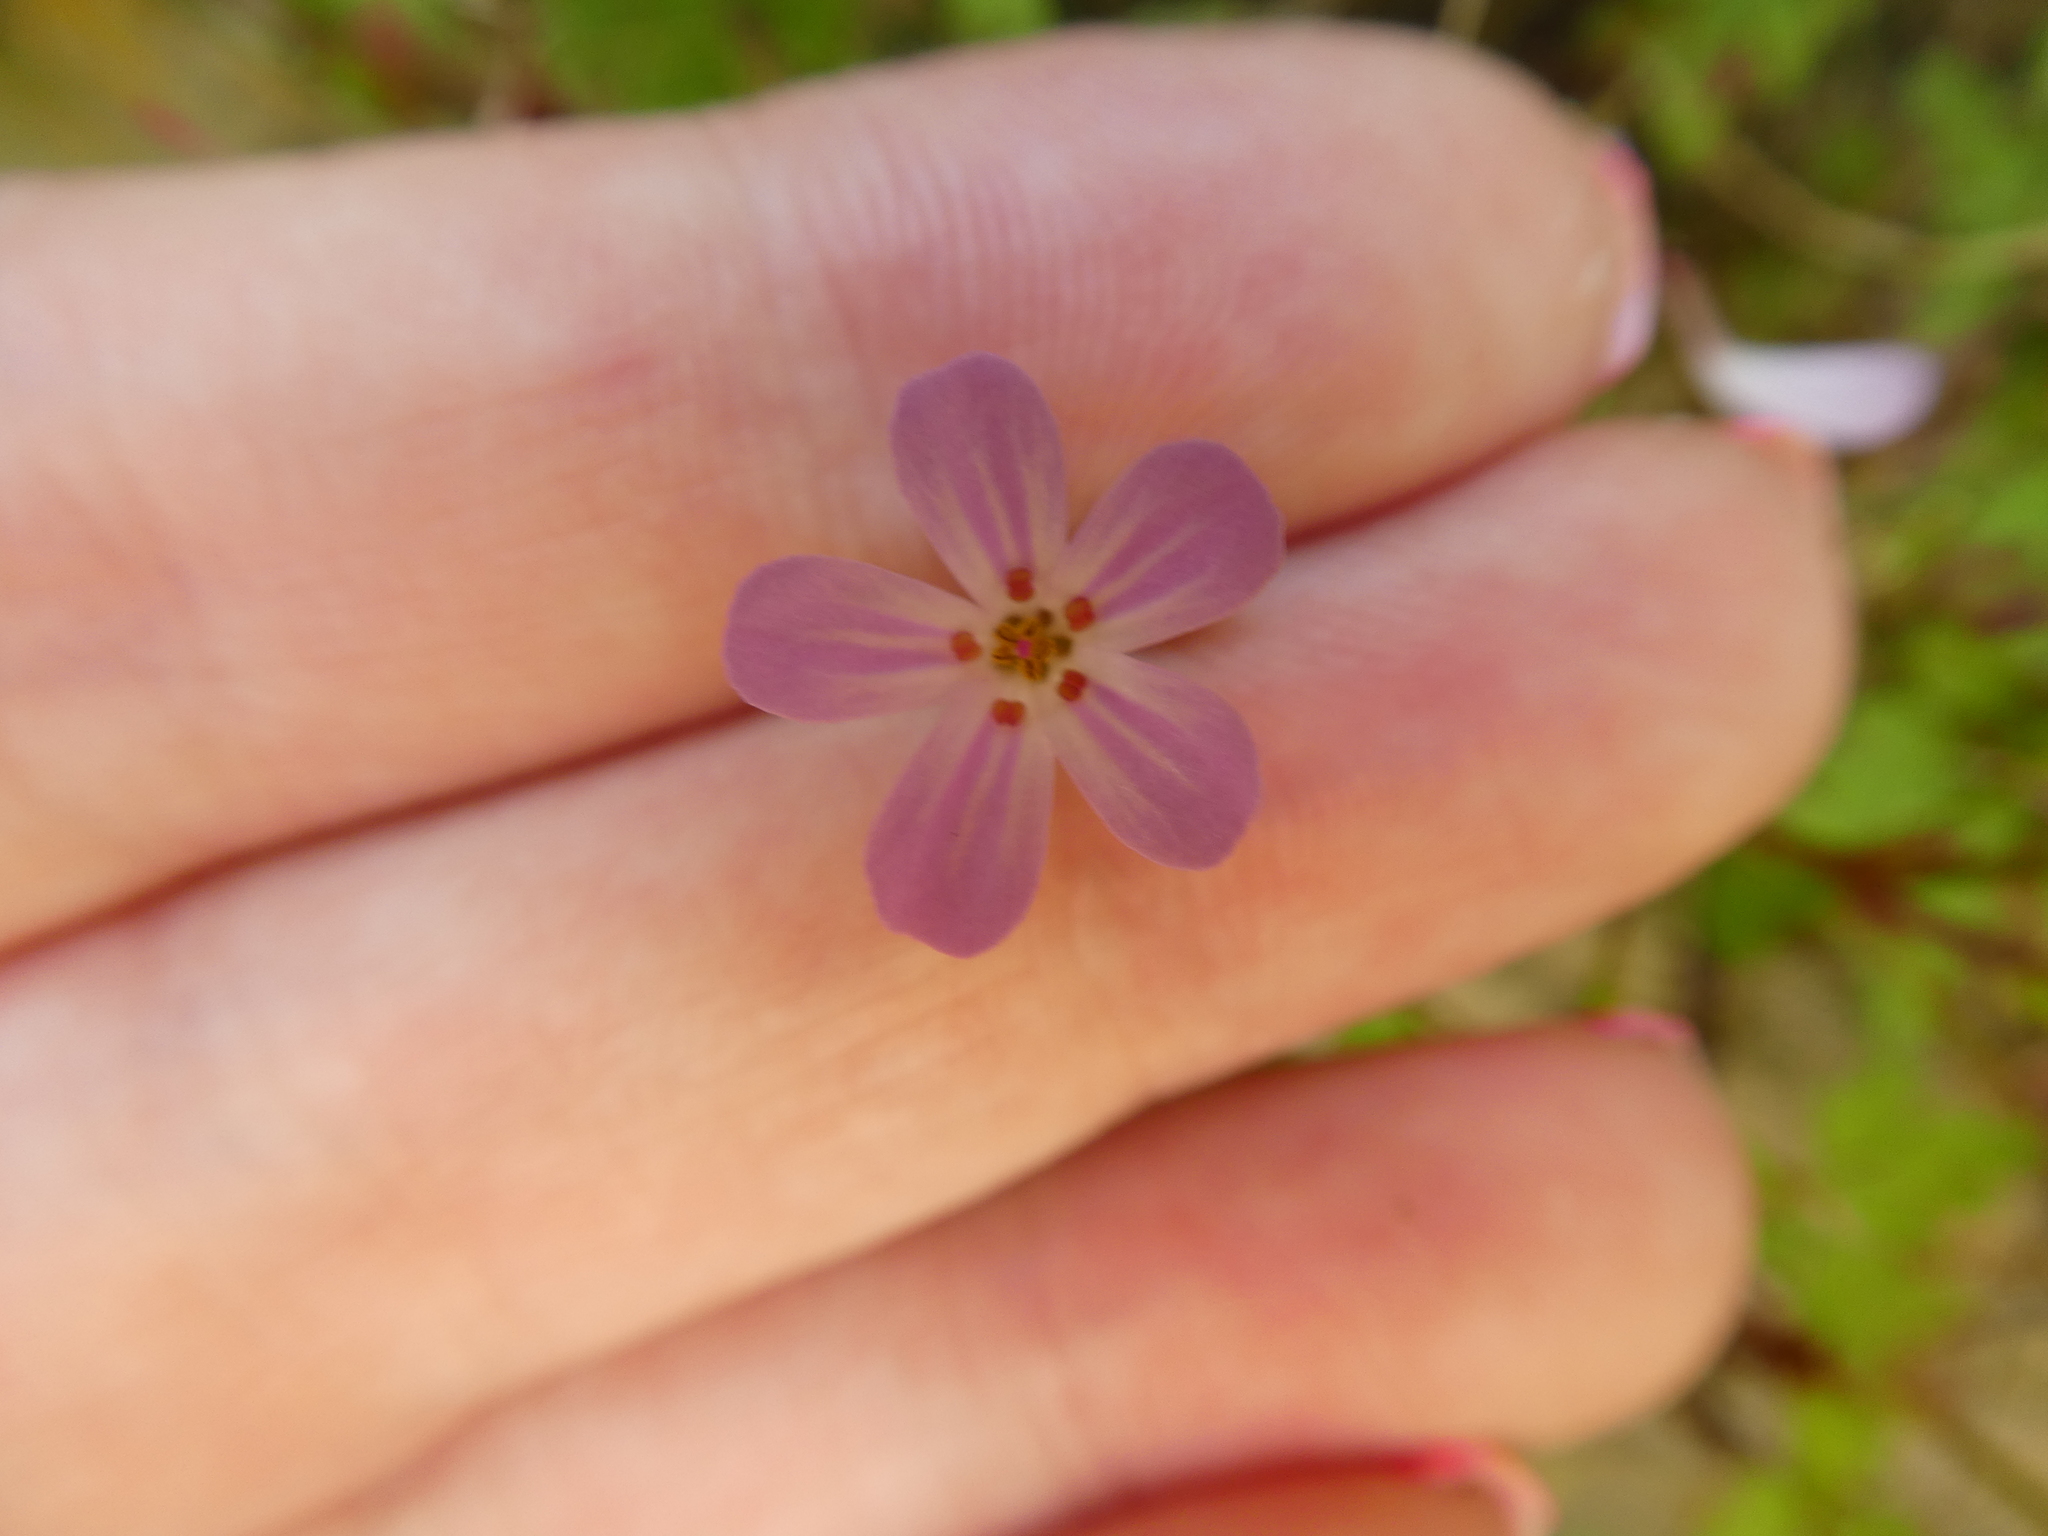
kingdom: Plantae
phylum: Tracheophyta
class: Magnoliopsida
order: Geraniales
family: Geraniaceae
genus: Geranium
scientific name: Geranium robertianum
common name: Herb-robert
